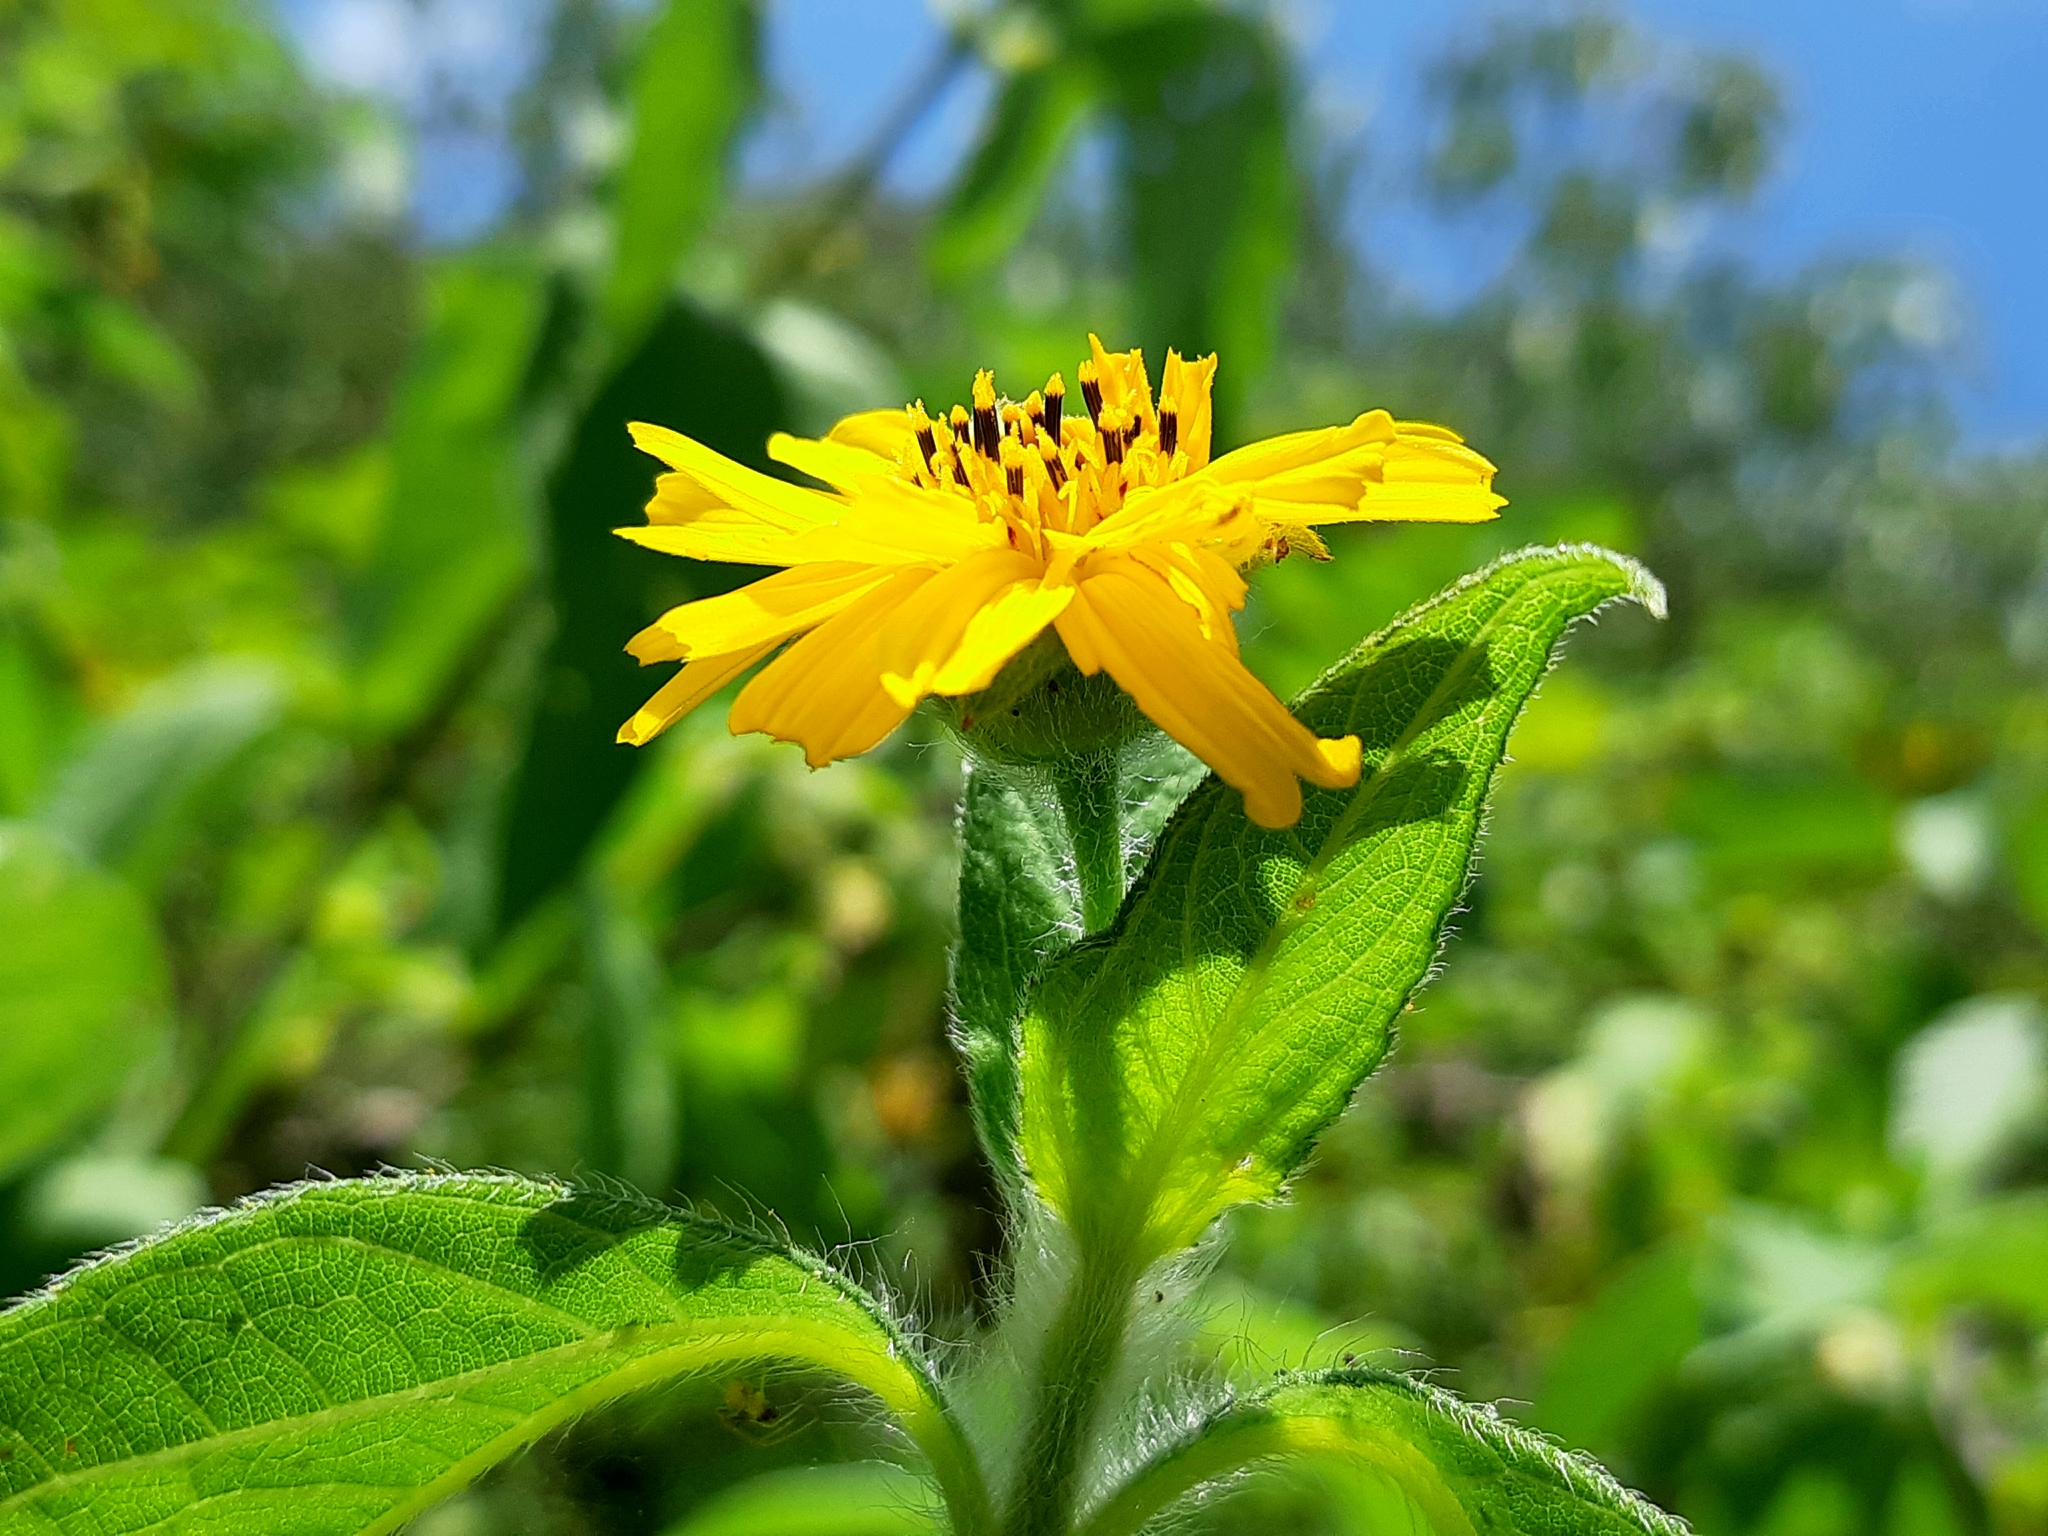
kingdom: Plantae
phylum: Tracheophyta
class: Magnoliopsida
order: Asterales
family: Asteraceae
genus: Wedelia
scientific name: Wedelia calycina
